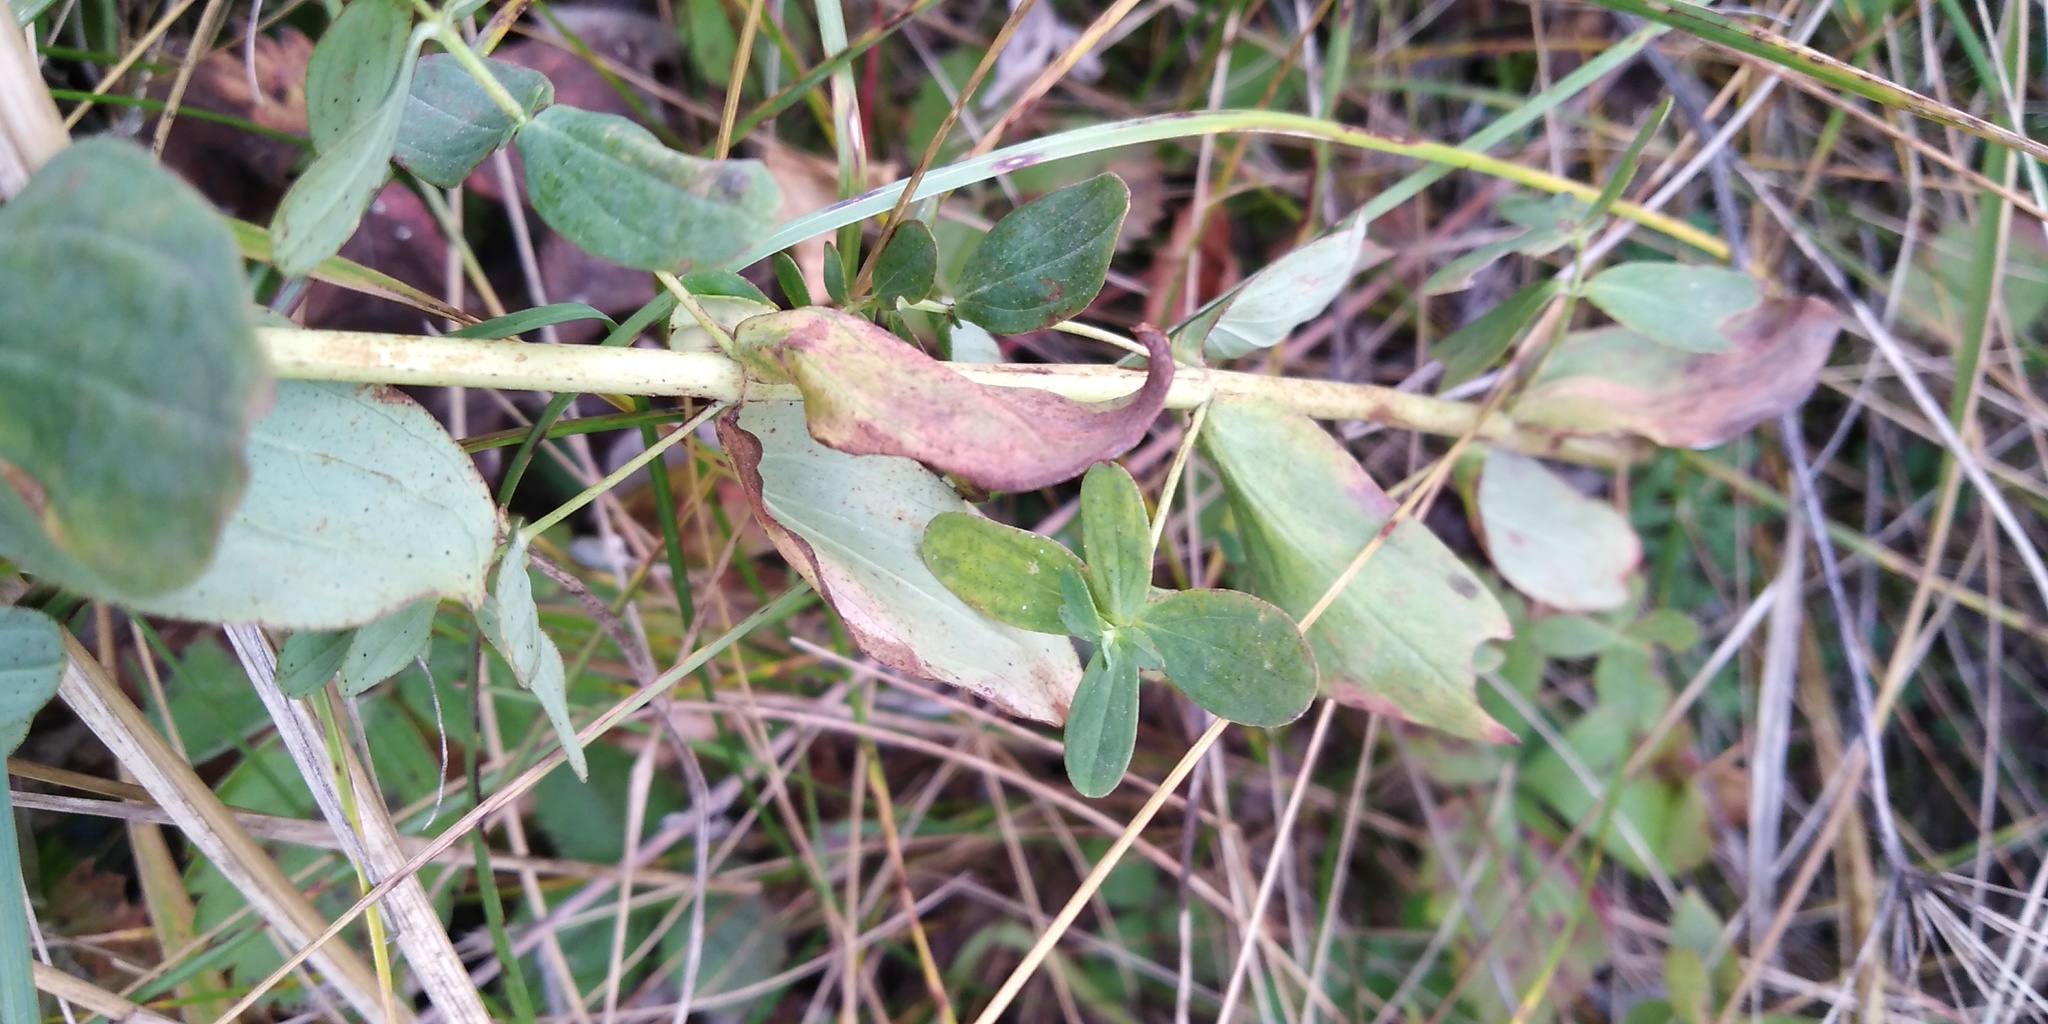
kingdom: Plantae
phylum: Tracheophyta
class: Magnoliopsida
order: Malpighiales
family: Hypericaceae
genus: Hypericum
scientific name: Hypericum perforatum
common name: Common st. johnswort
